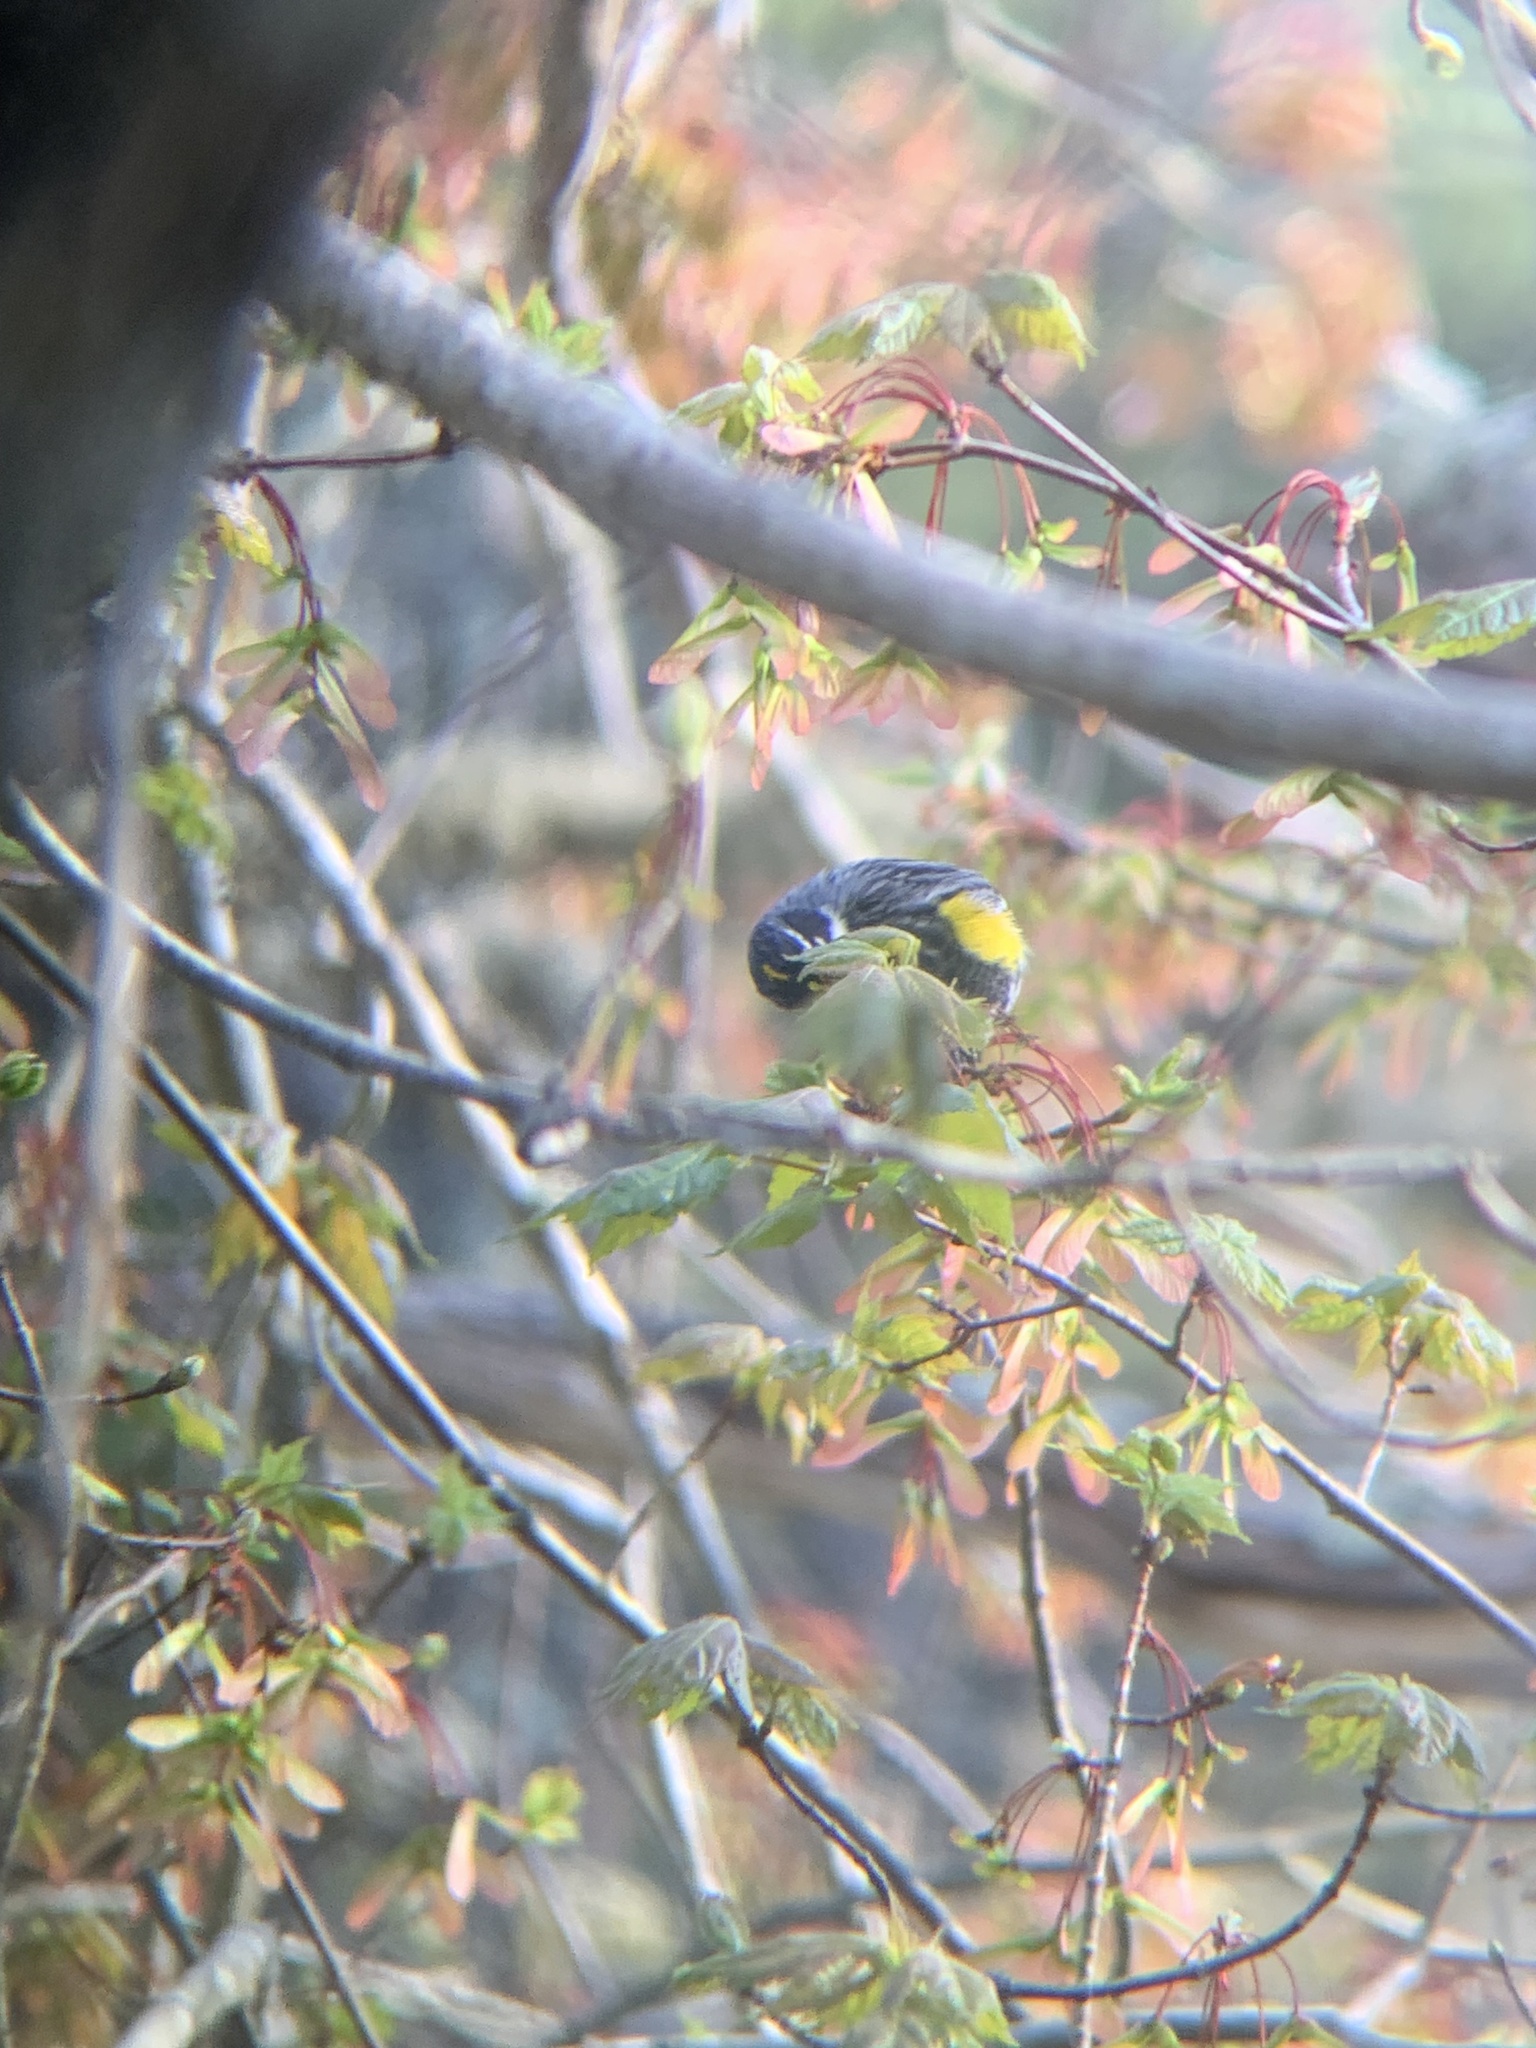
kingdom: Animalia
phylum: Chordata
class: Aves
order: Passeriformes
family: Parulidae
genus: Setophaga
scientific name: Setophaga coronata
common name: Myrtle warbler
